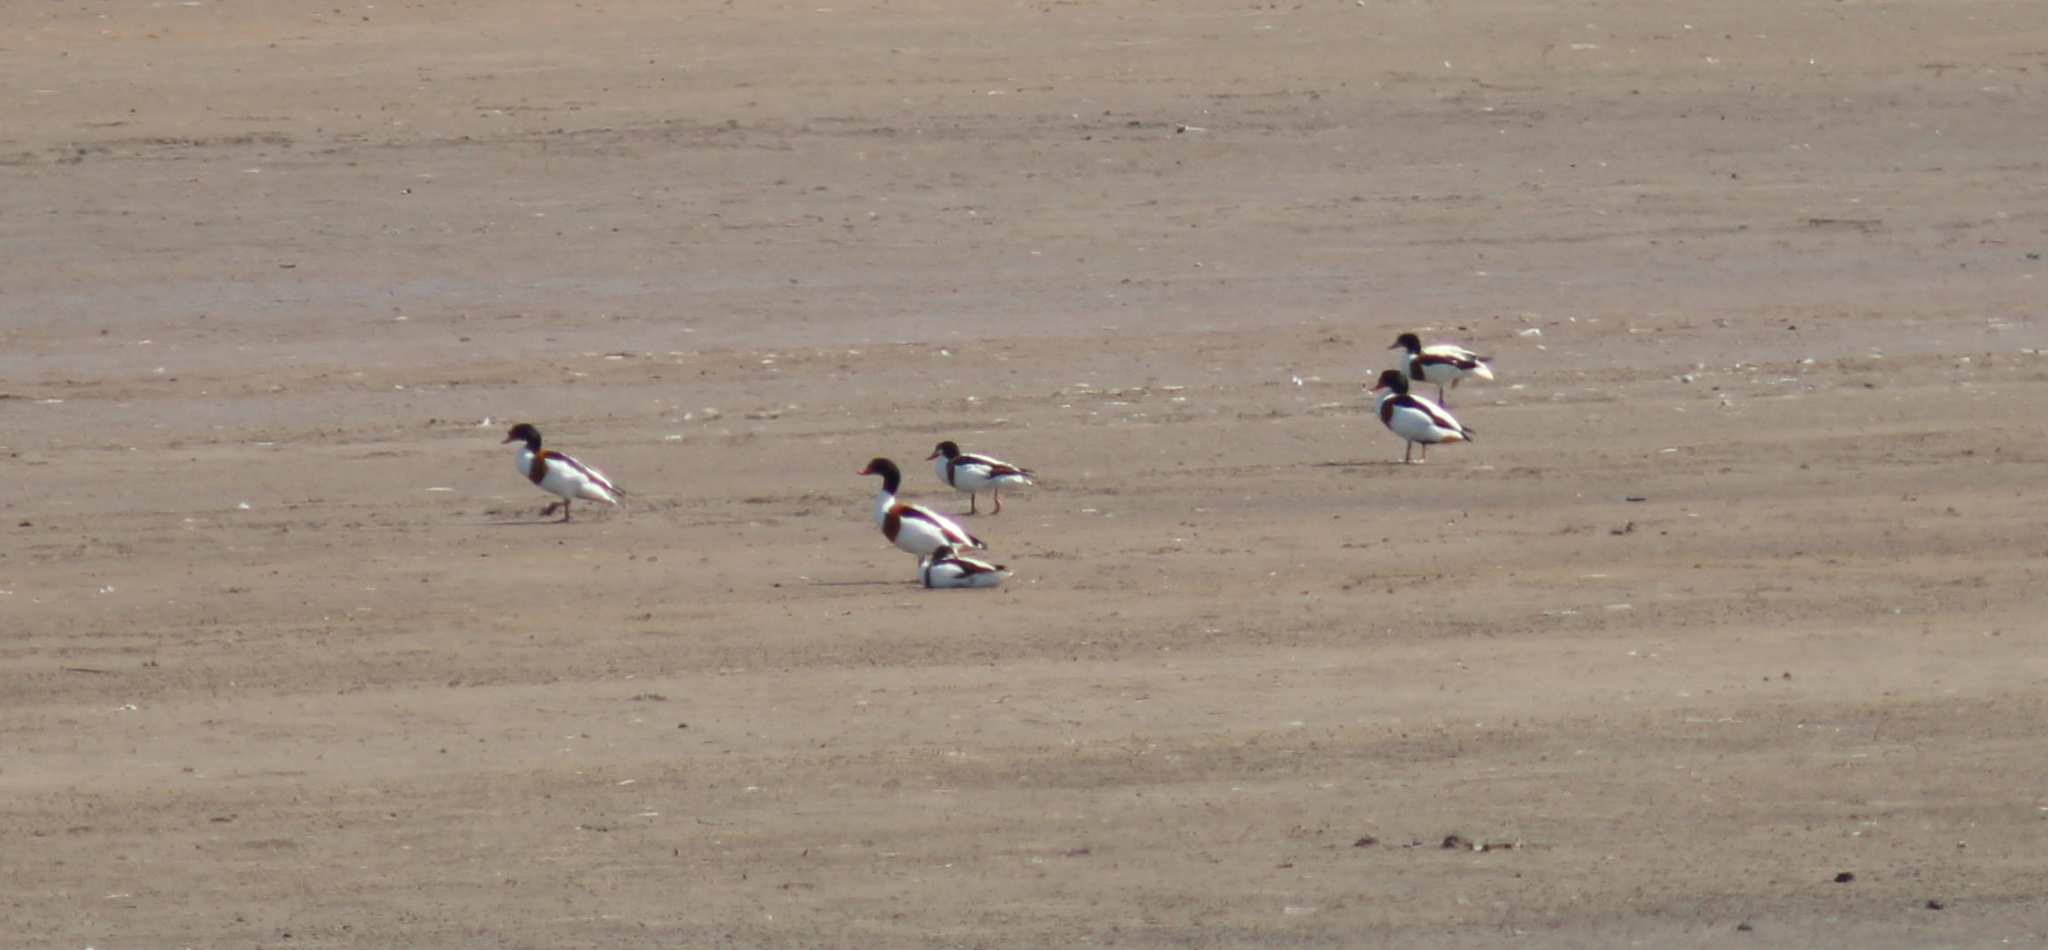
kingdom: Animalia
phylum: Chordata
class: Aves
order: Anseriformes
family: Anatidae
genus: Tadorna
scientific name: Tadorna tadorna
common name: Common shelduck
